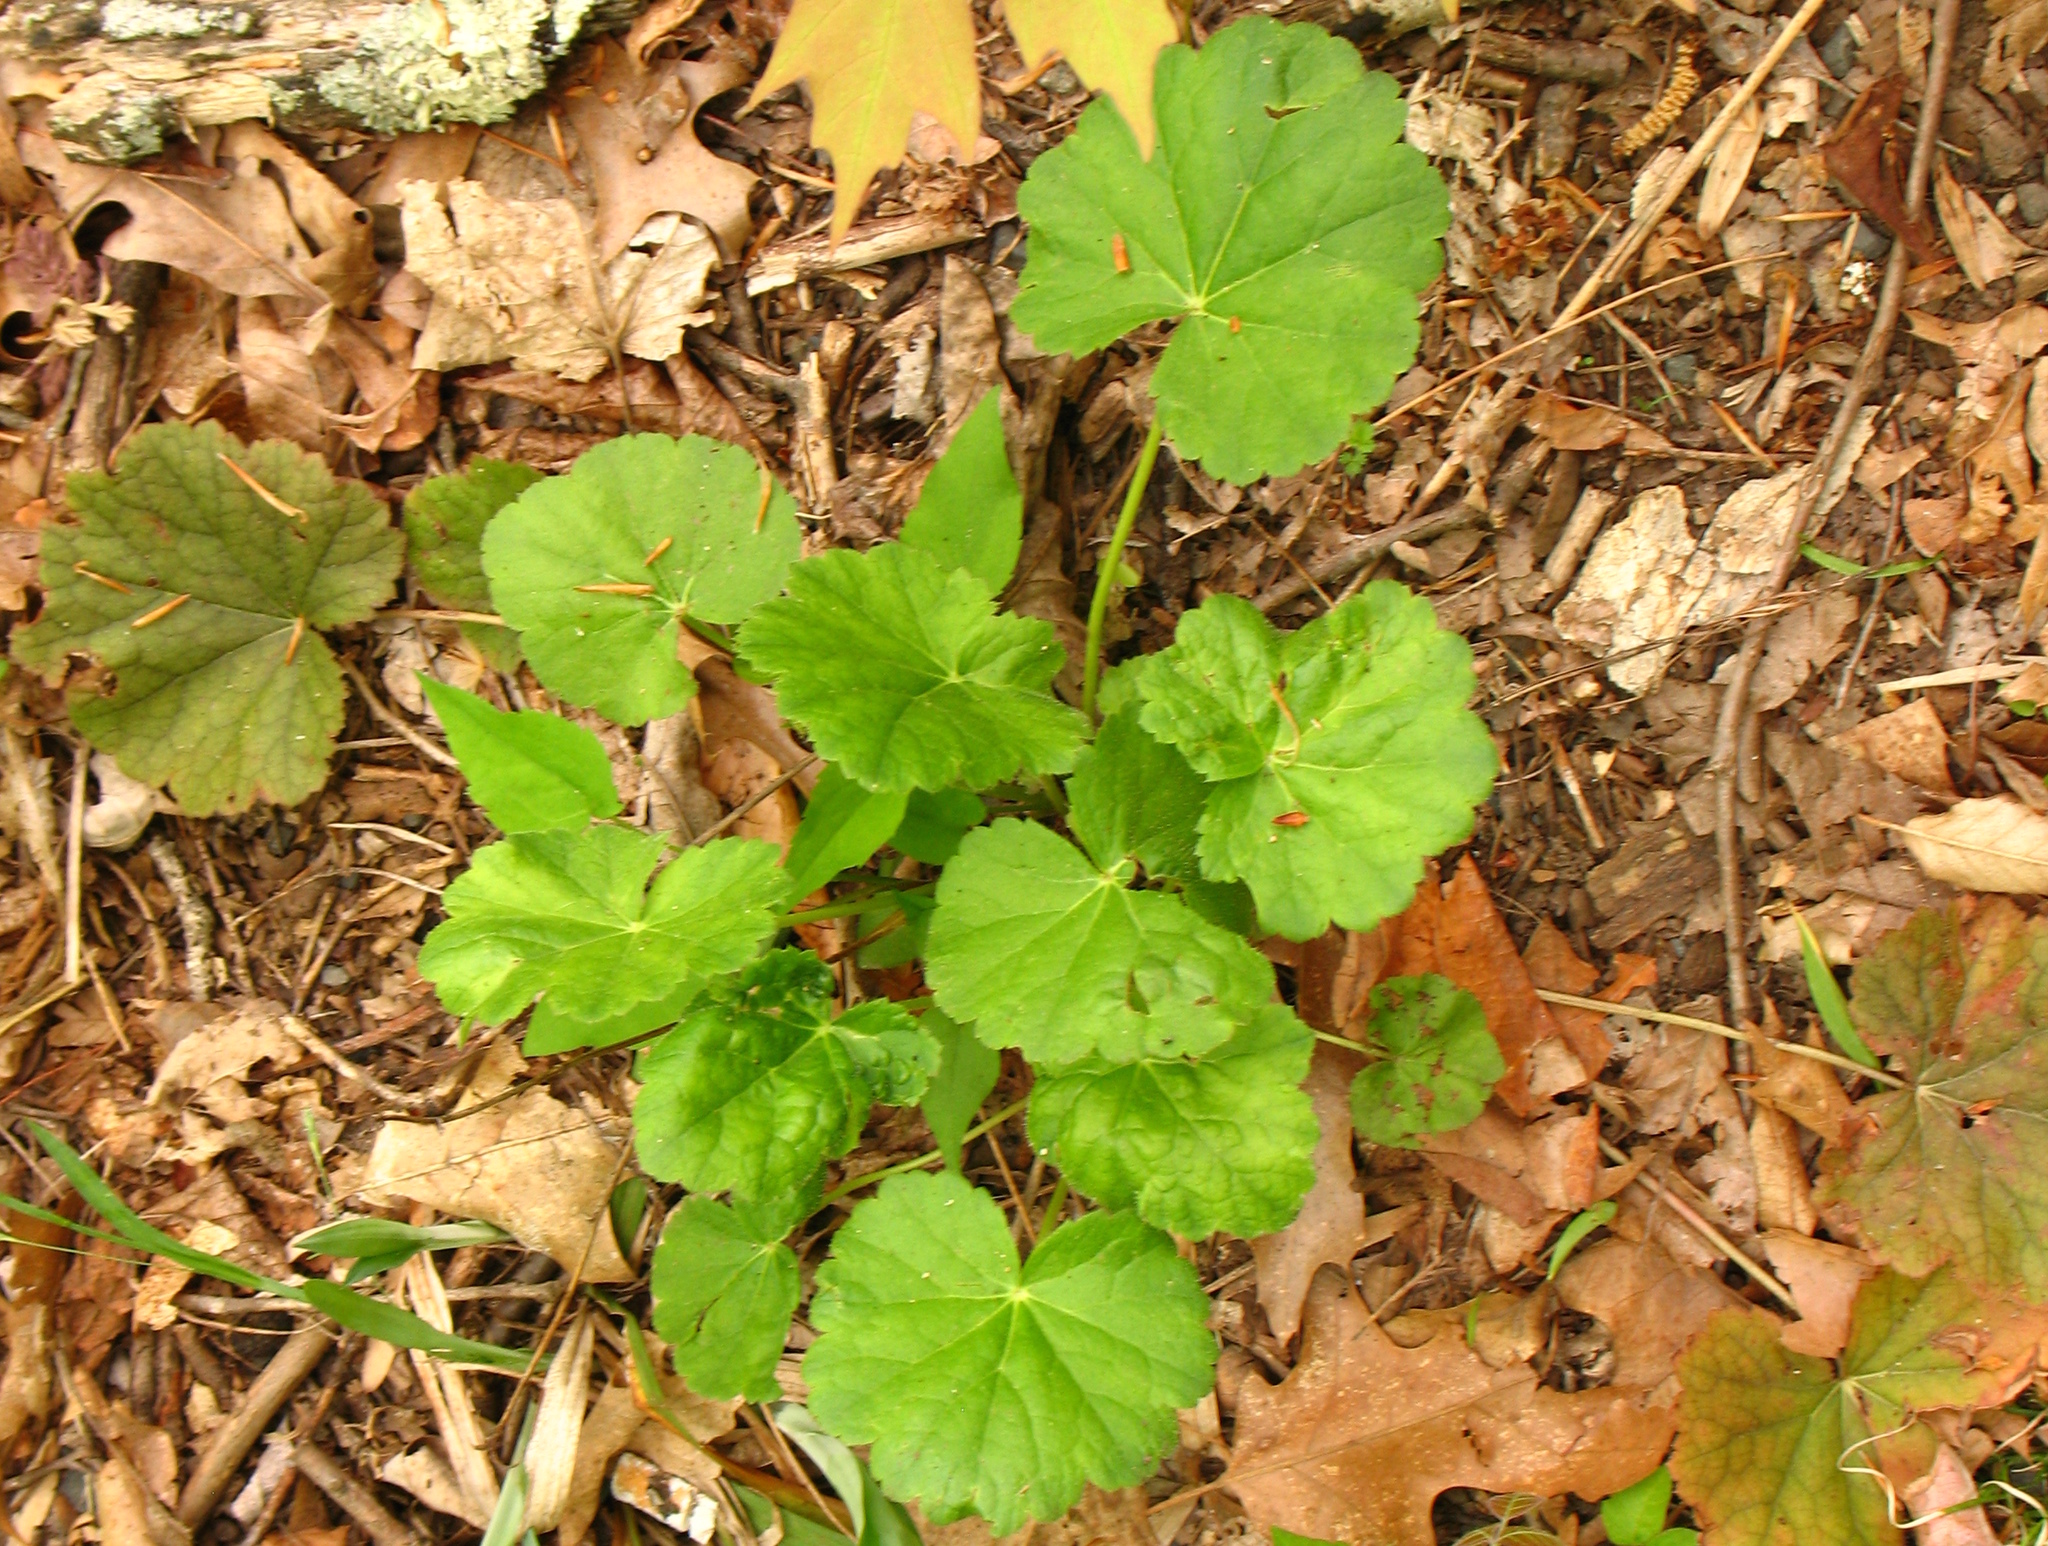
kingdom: Plantae
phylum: Tracheophyta
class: Magnoliopsida
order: Saxifragales
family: Saxifragaceae
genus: Heuchera
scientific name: Heuchera americana
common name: Alumroot
